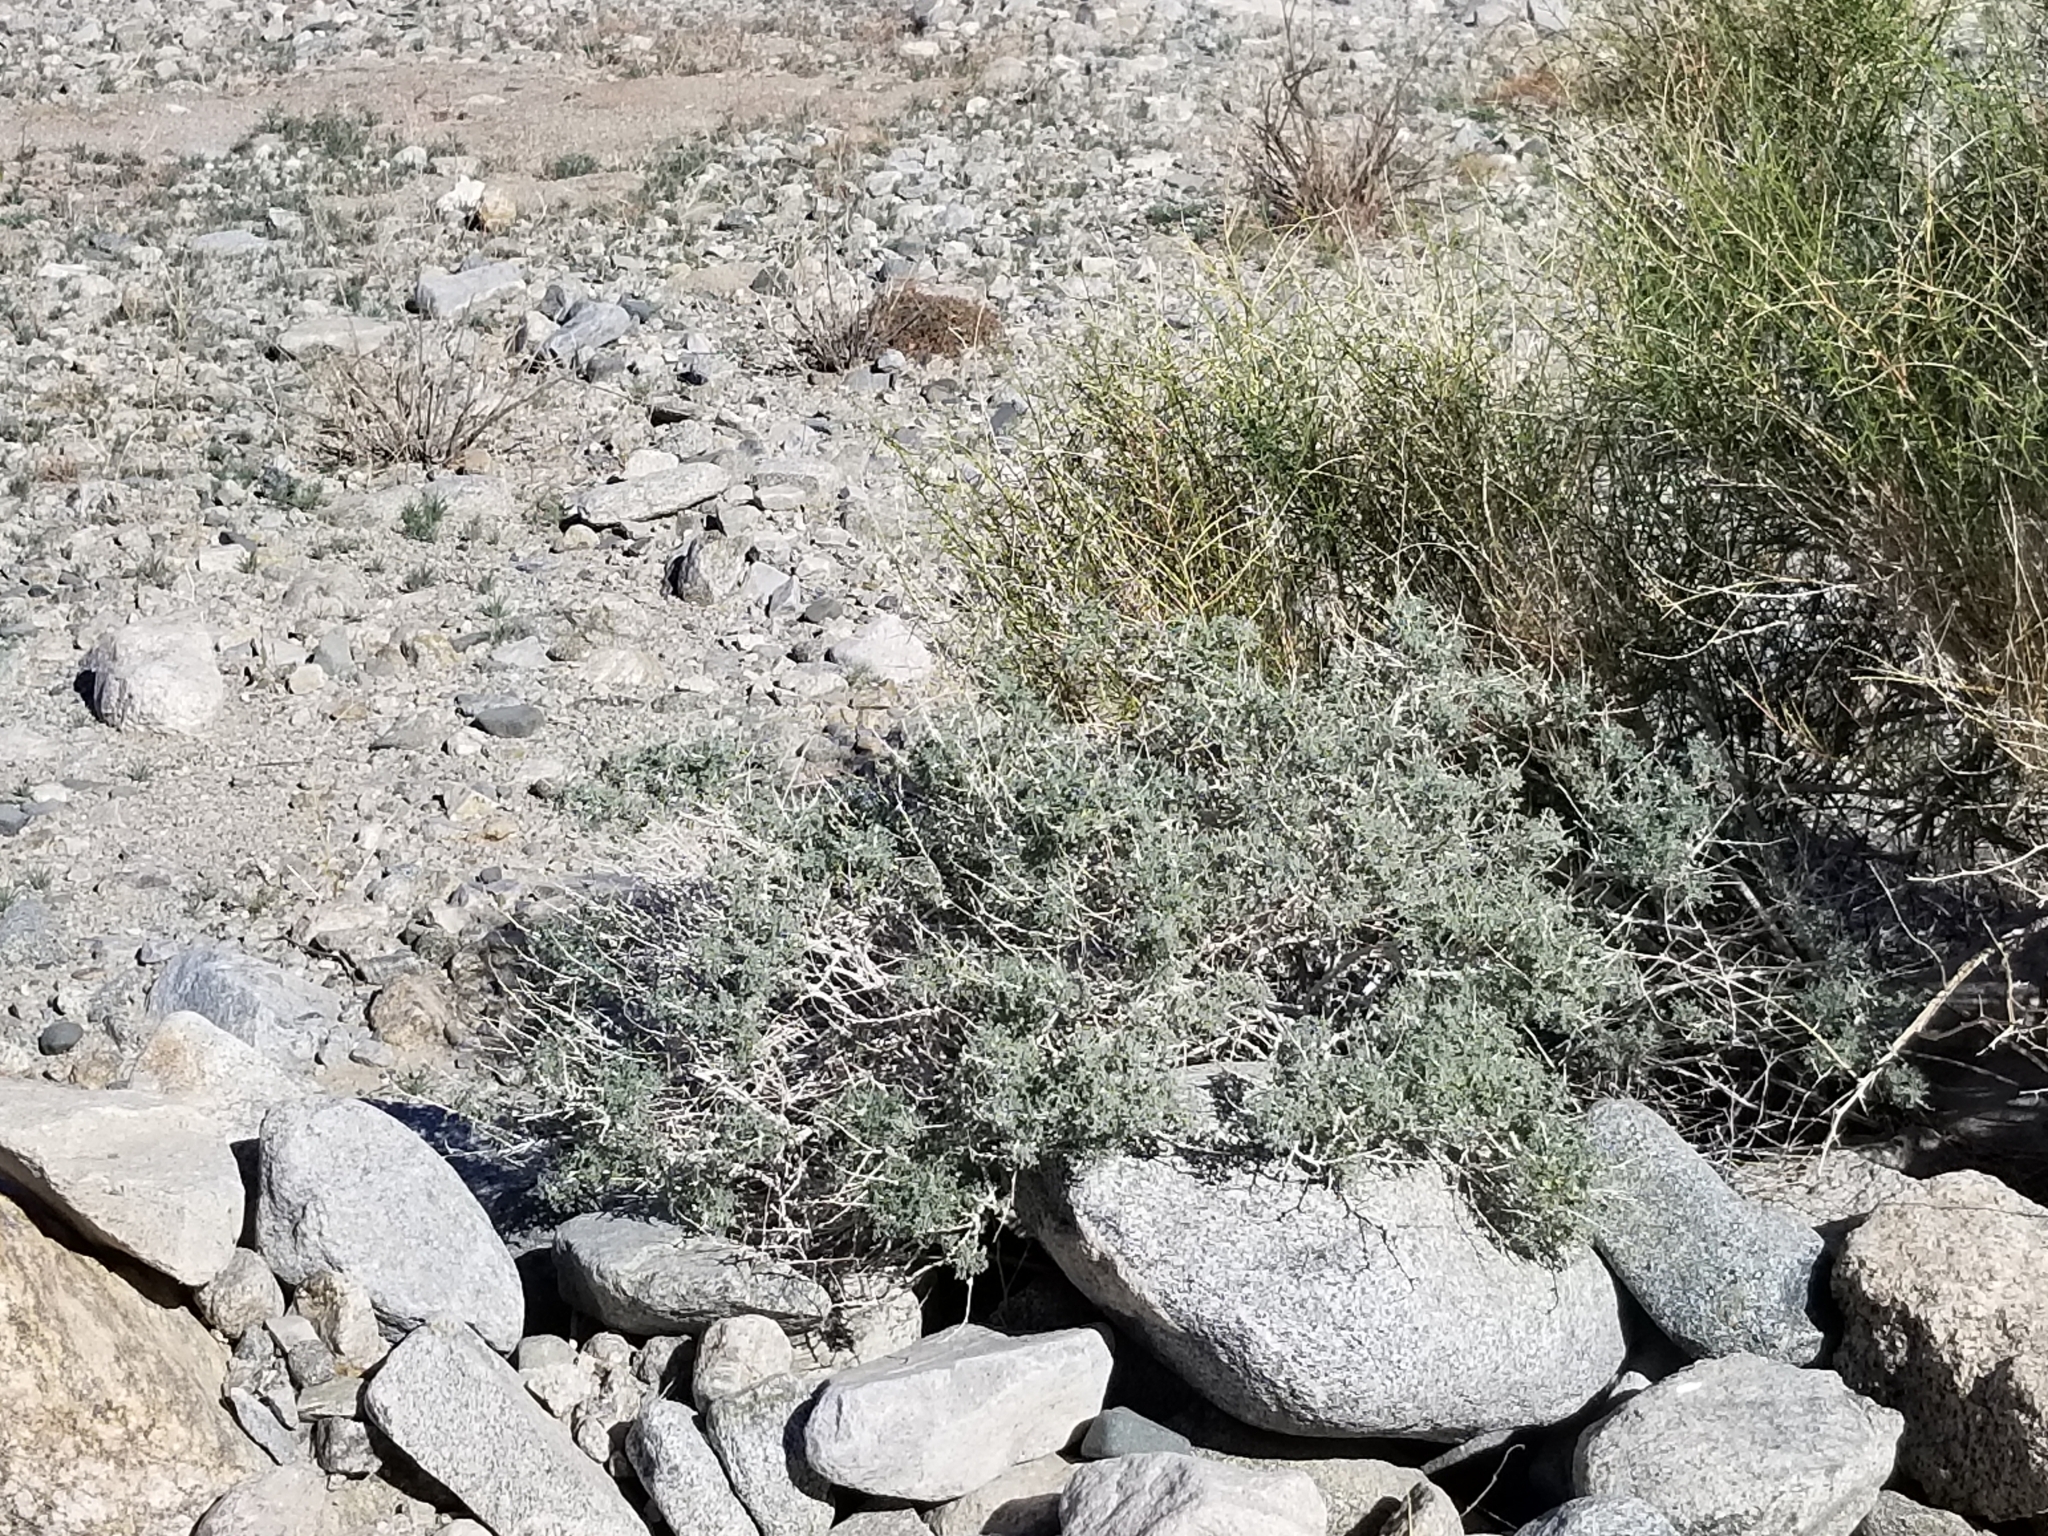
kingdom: Plantae
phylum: Tracheophyta
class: Magnoliopsida
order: Asterales
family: Asteraceae
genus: Ambrosia
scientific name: Ambrosia dumosa
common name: Bur-sage
